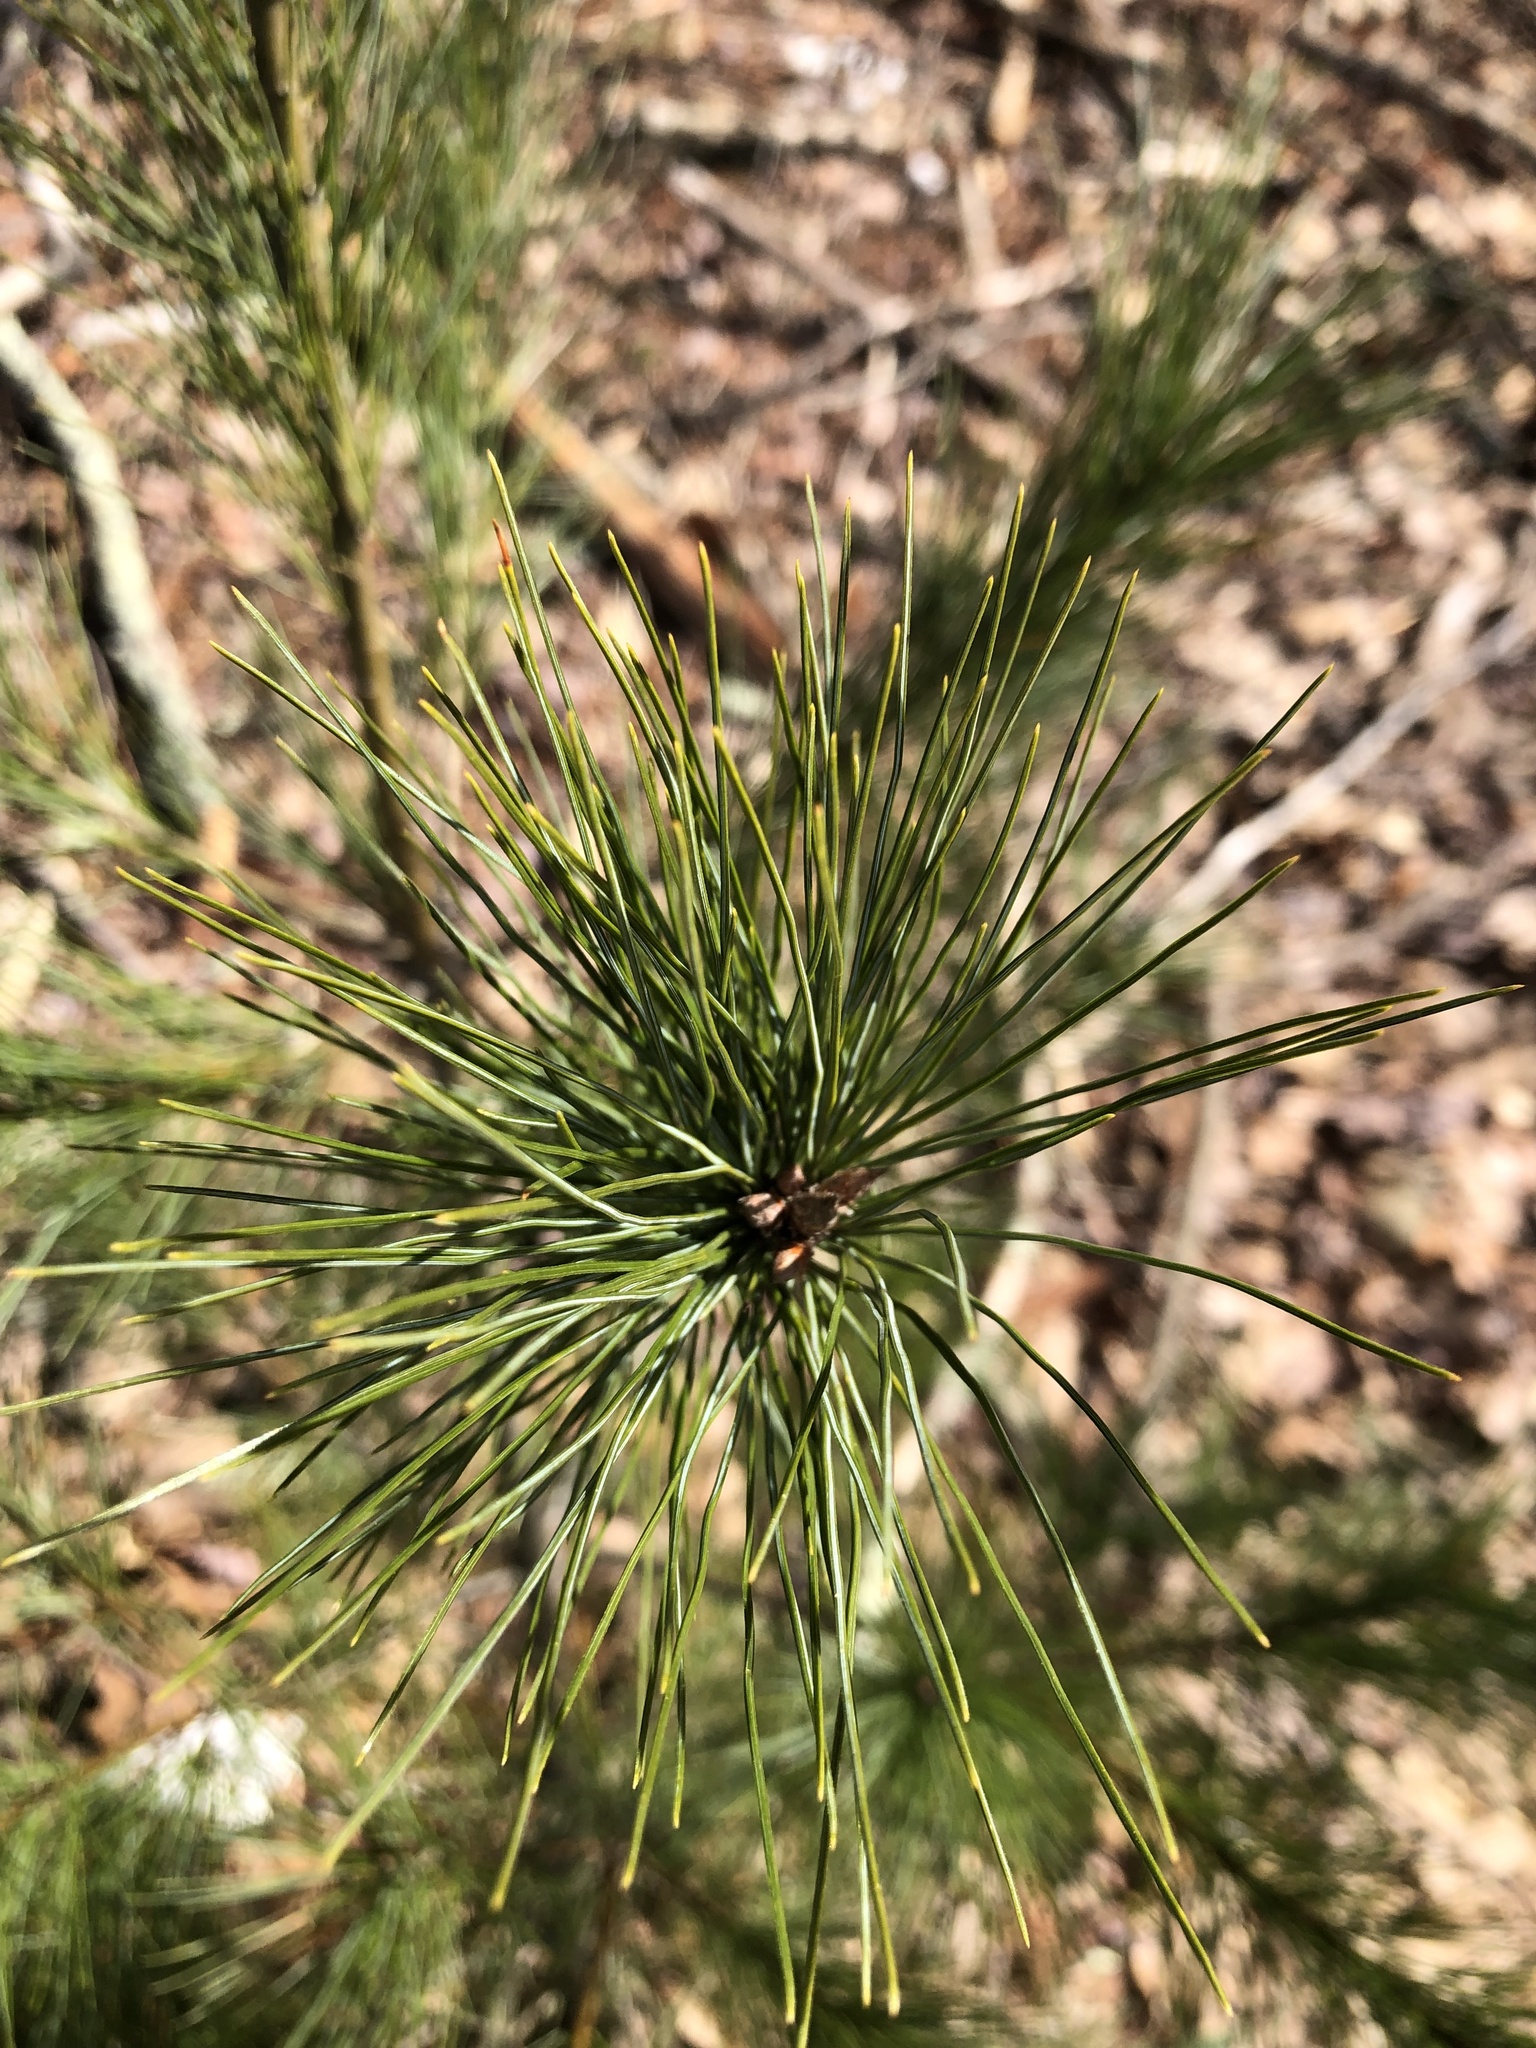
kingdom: Plantae
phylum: Tracheophyta
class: Pinopsida
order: Pinales
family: Pinaceae
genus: Pinus
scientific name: Pinus strobus
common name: Weymouth pine
